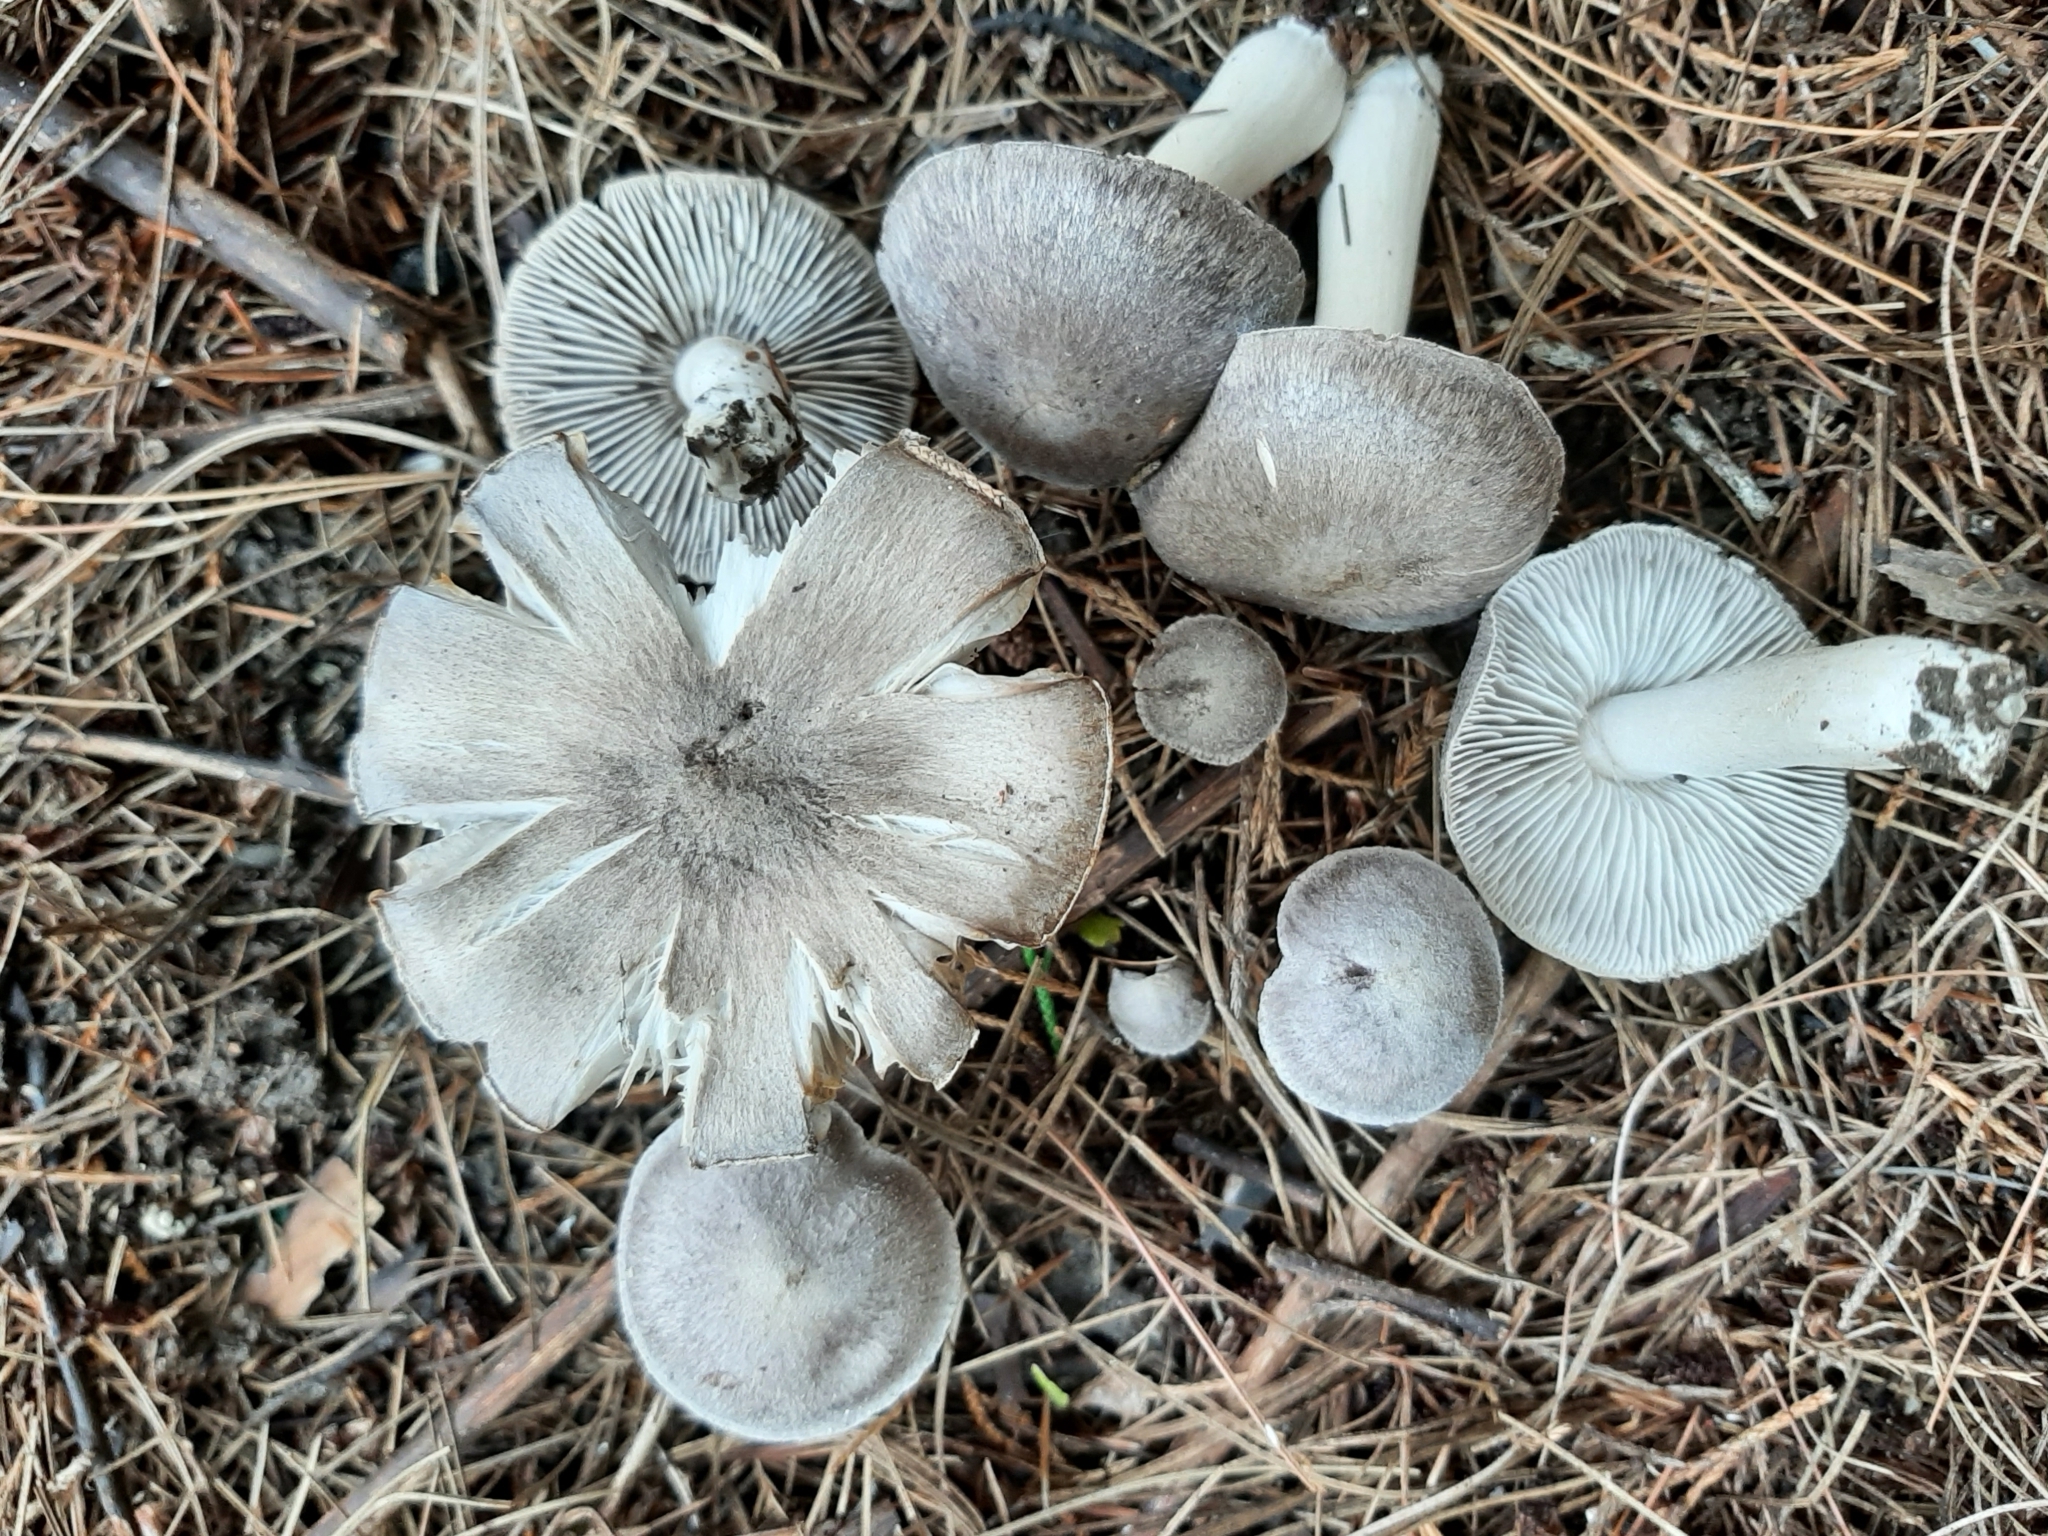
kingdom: Fungi
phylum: Basidiomycota
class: Agaricomycetes
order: Agaricales
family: Tricholomataceae
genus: Tricholoma
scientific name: Tricholoma terreum
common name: Grey knight
